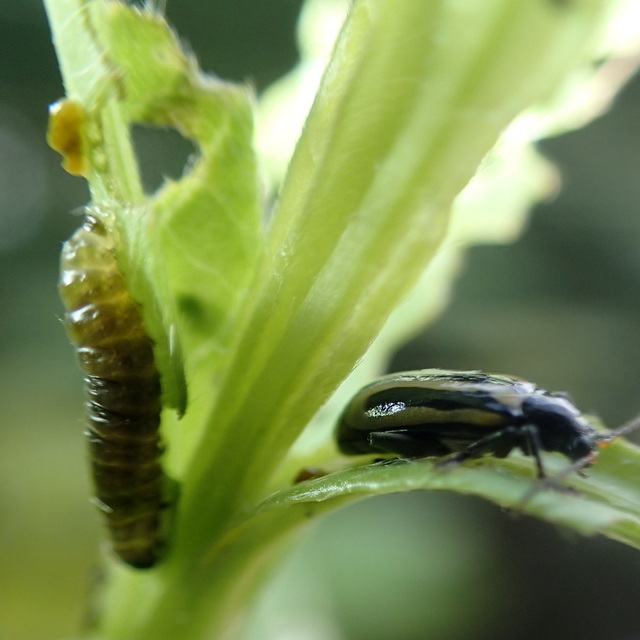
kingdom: Animalia
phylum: Arthropoda
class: Insecta
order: Coleoptera
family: Chrysomelidae
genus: Agasicles
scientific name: Agasicles hygrophila
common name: Alligatorweed flea beetle
